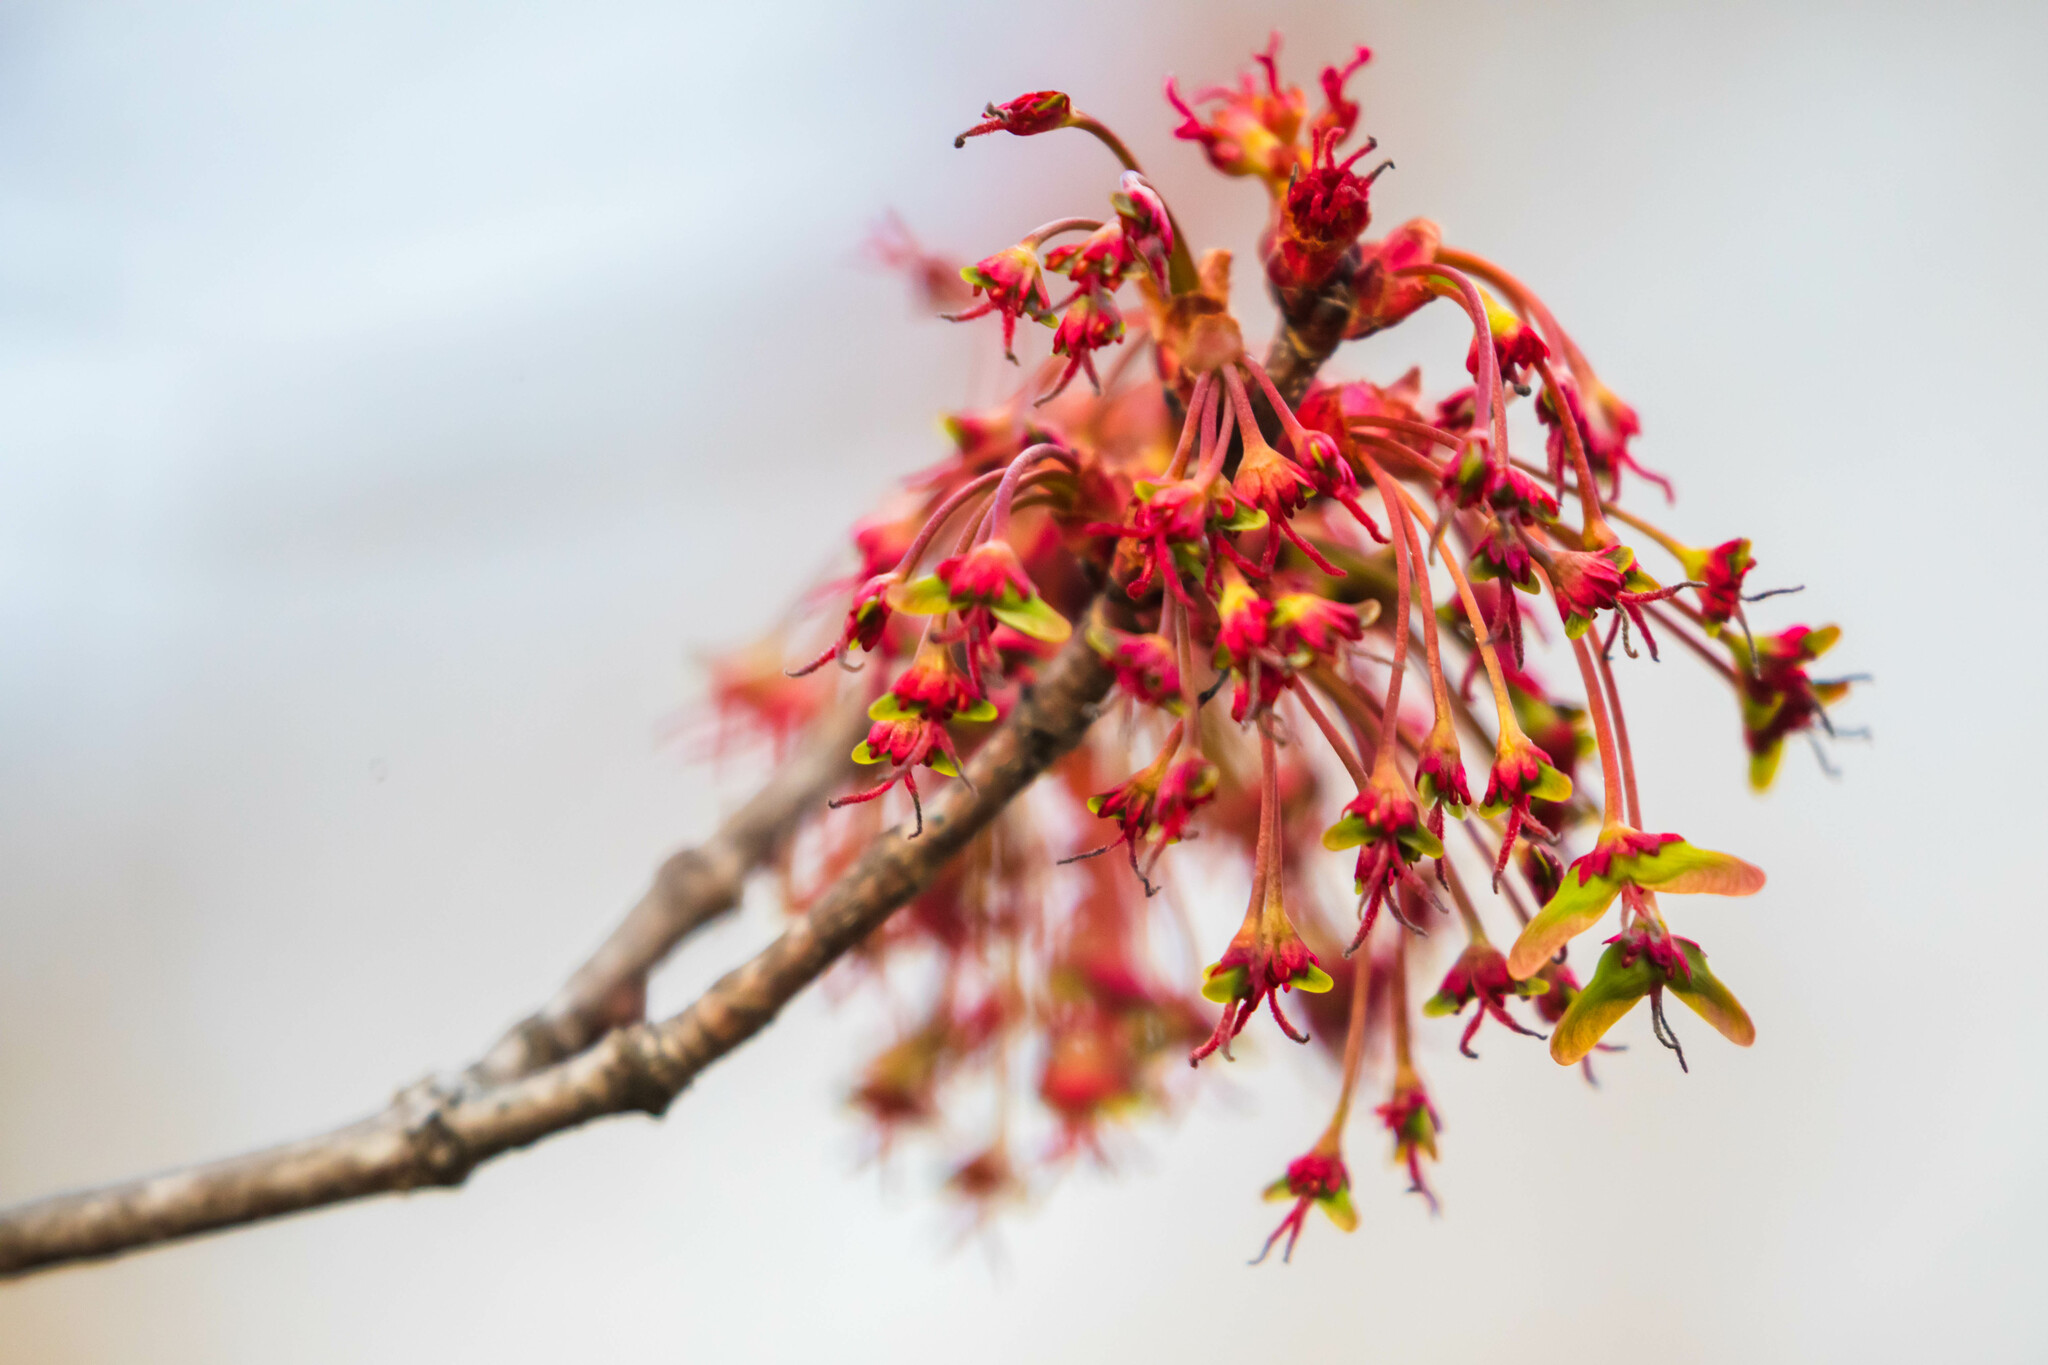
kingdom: Plantae
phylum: Tracheophyta
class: Magnoliopsida
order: Sapindales
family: Sapindaceae
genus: Acer
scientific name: Acer rubrum
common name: Red maple
